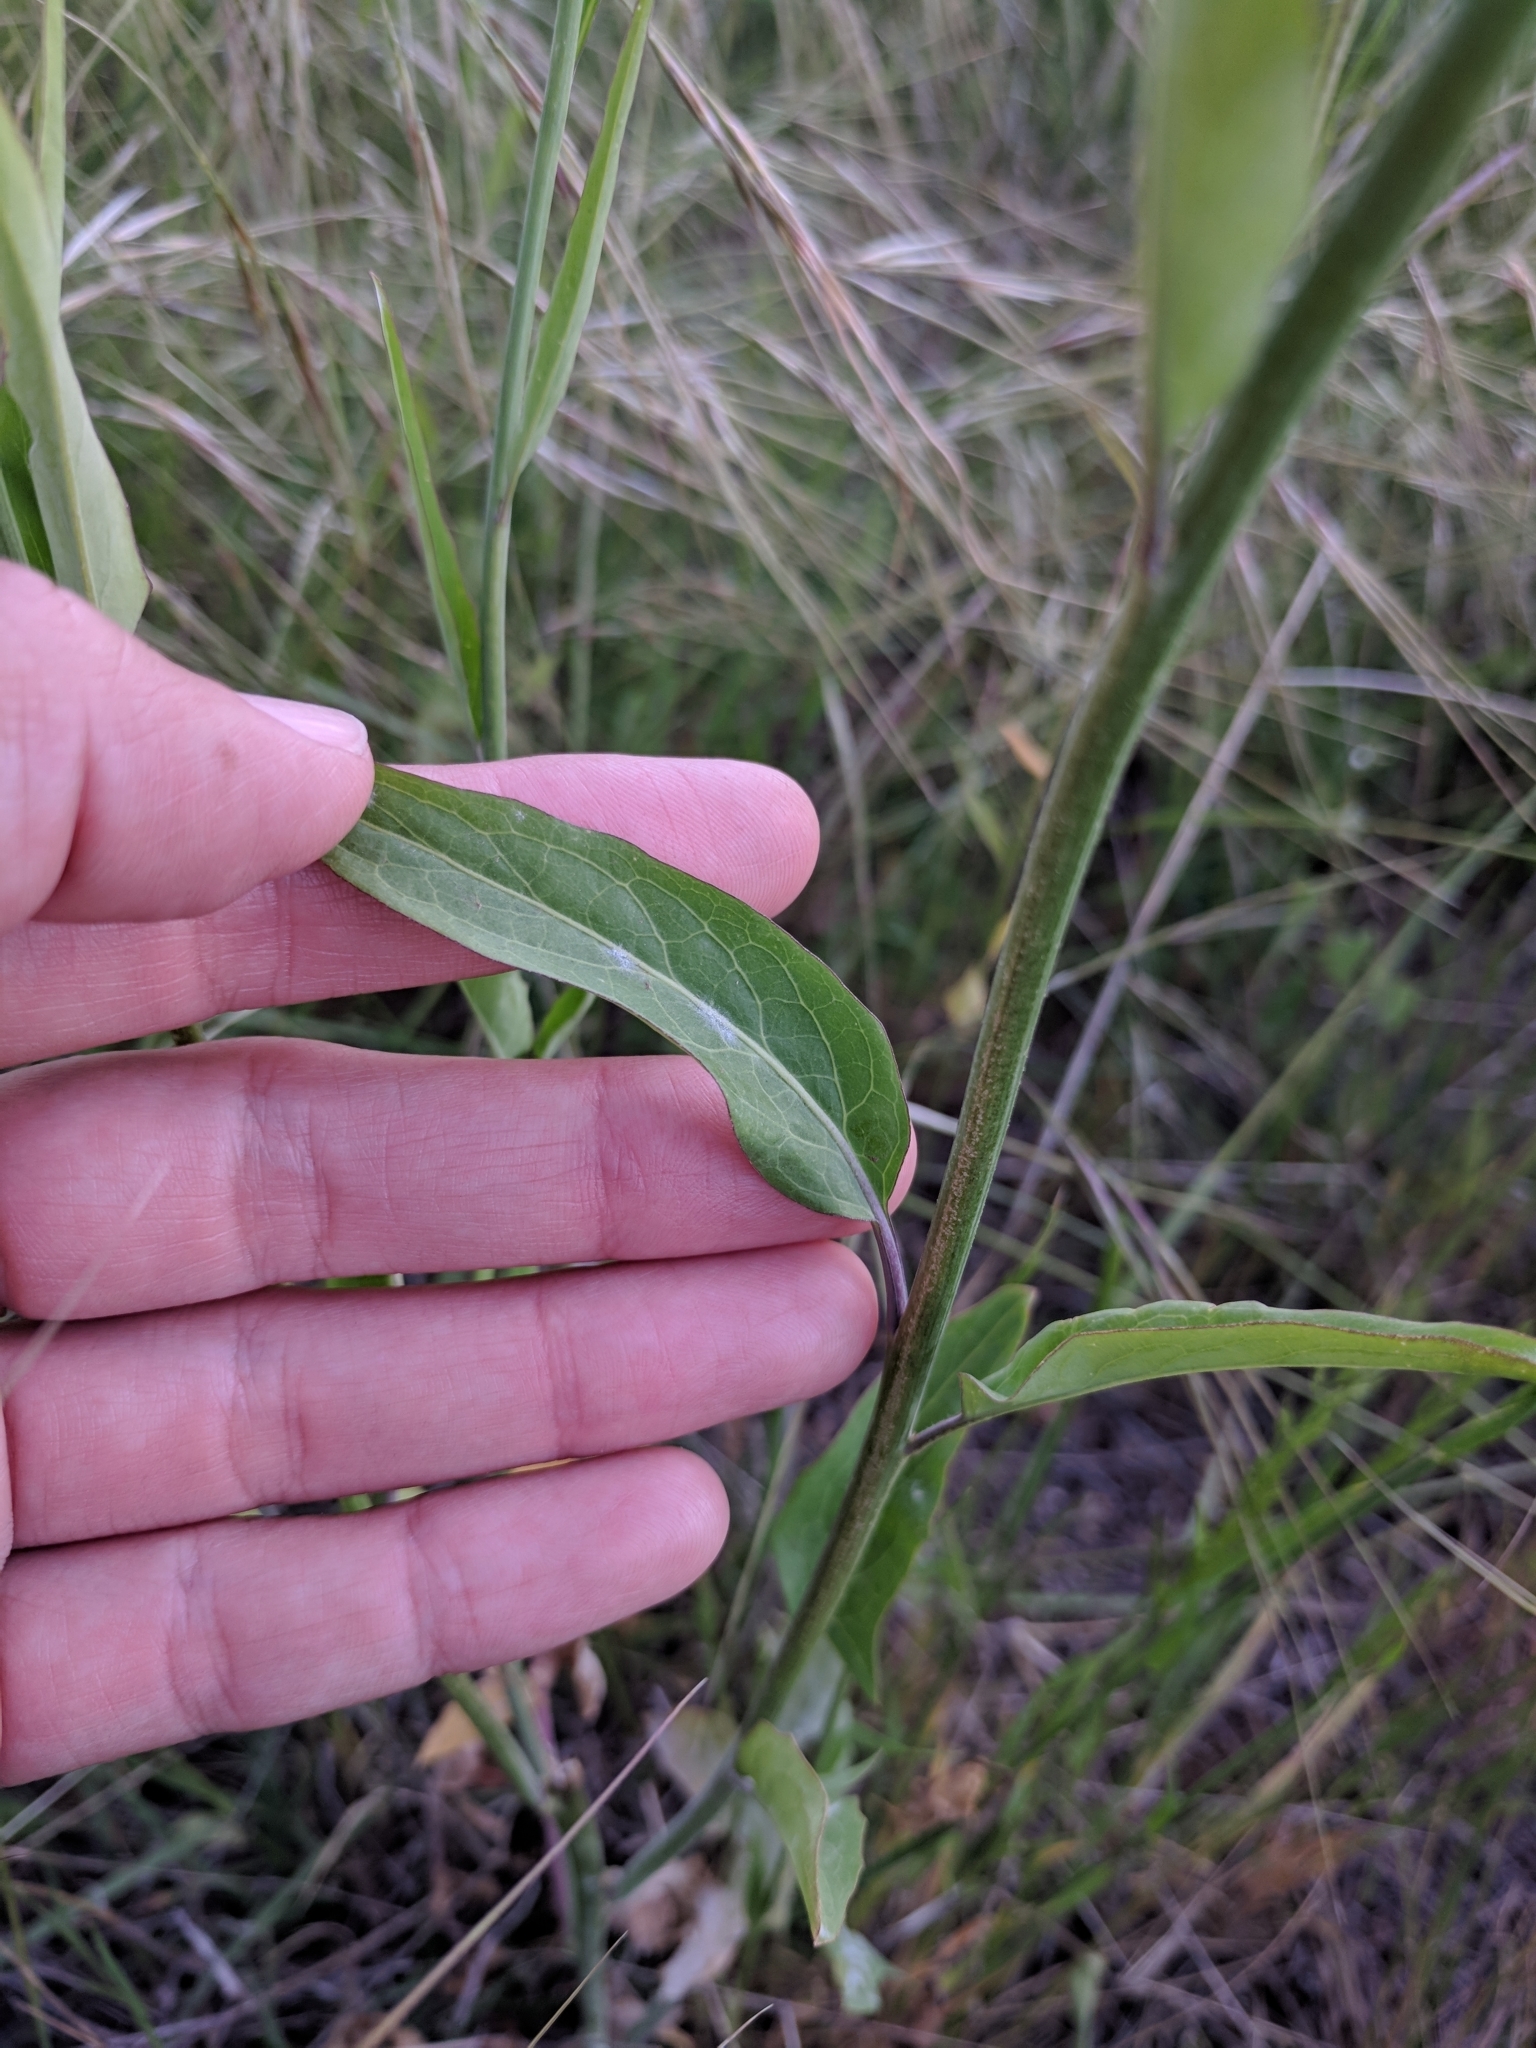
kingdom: Plantae
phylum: Tracheophyta
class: Magnoliopsida
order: Brassicales
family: Brassicaceae
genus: Streptanthus
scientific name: Streptanthus petiolaris
